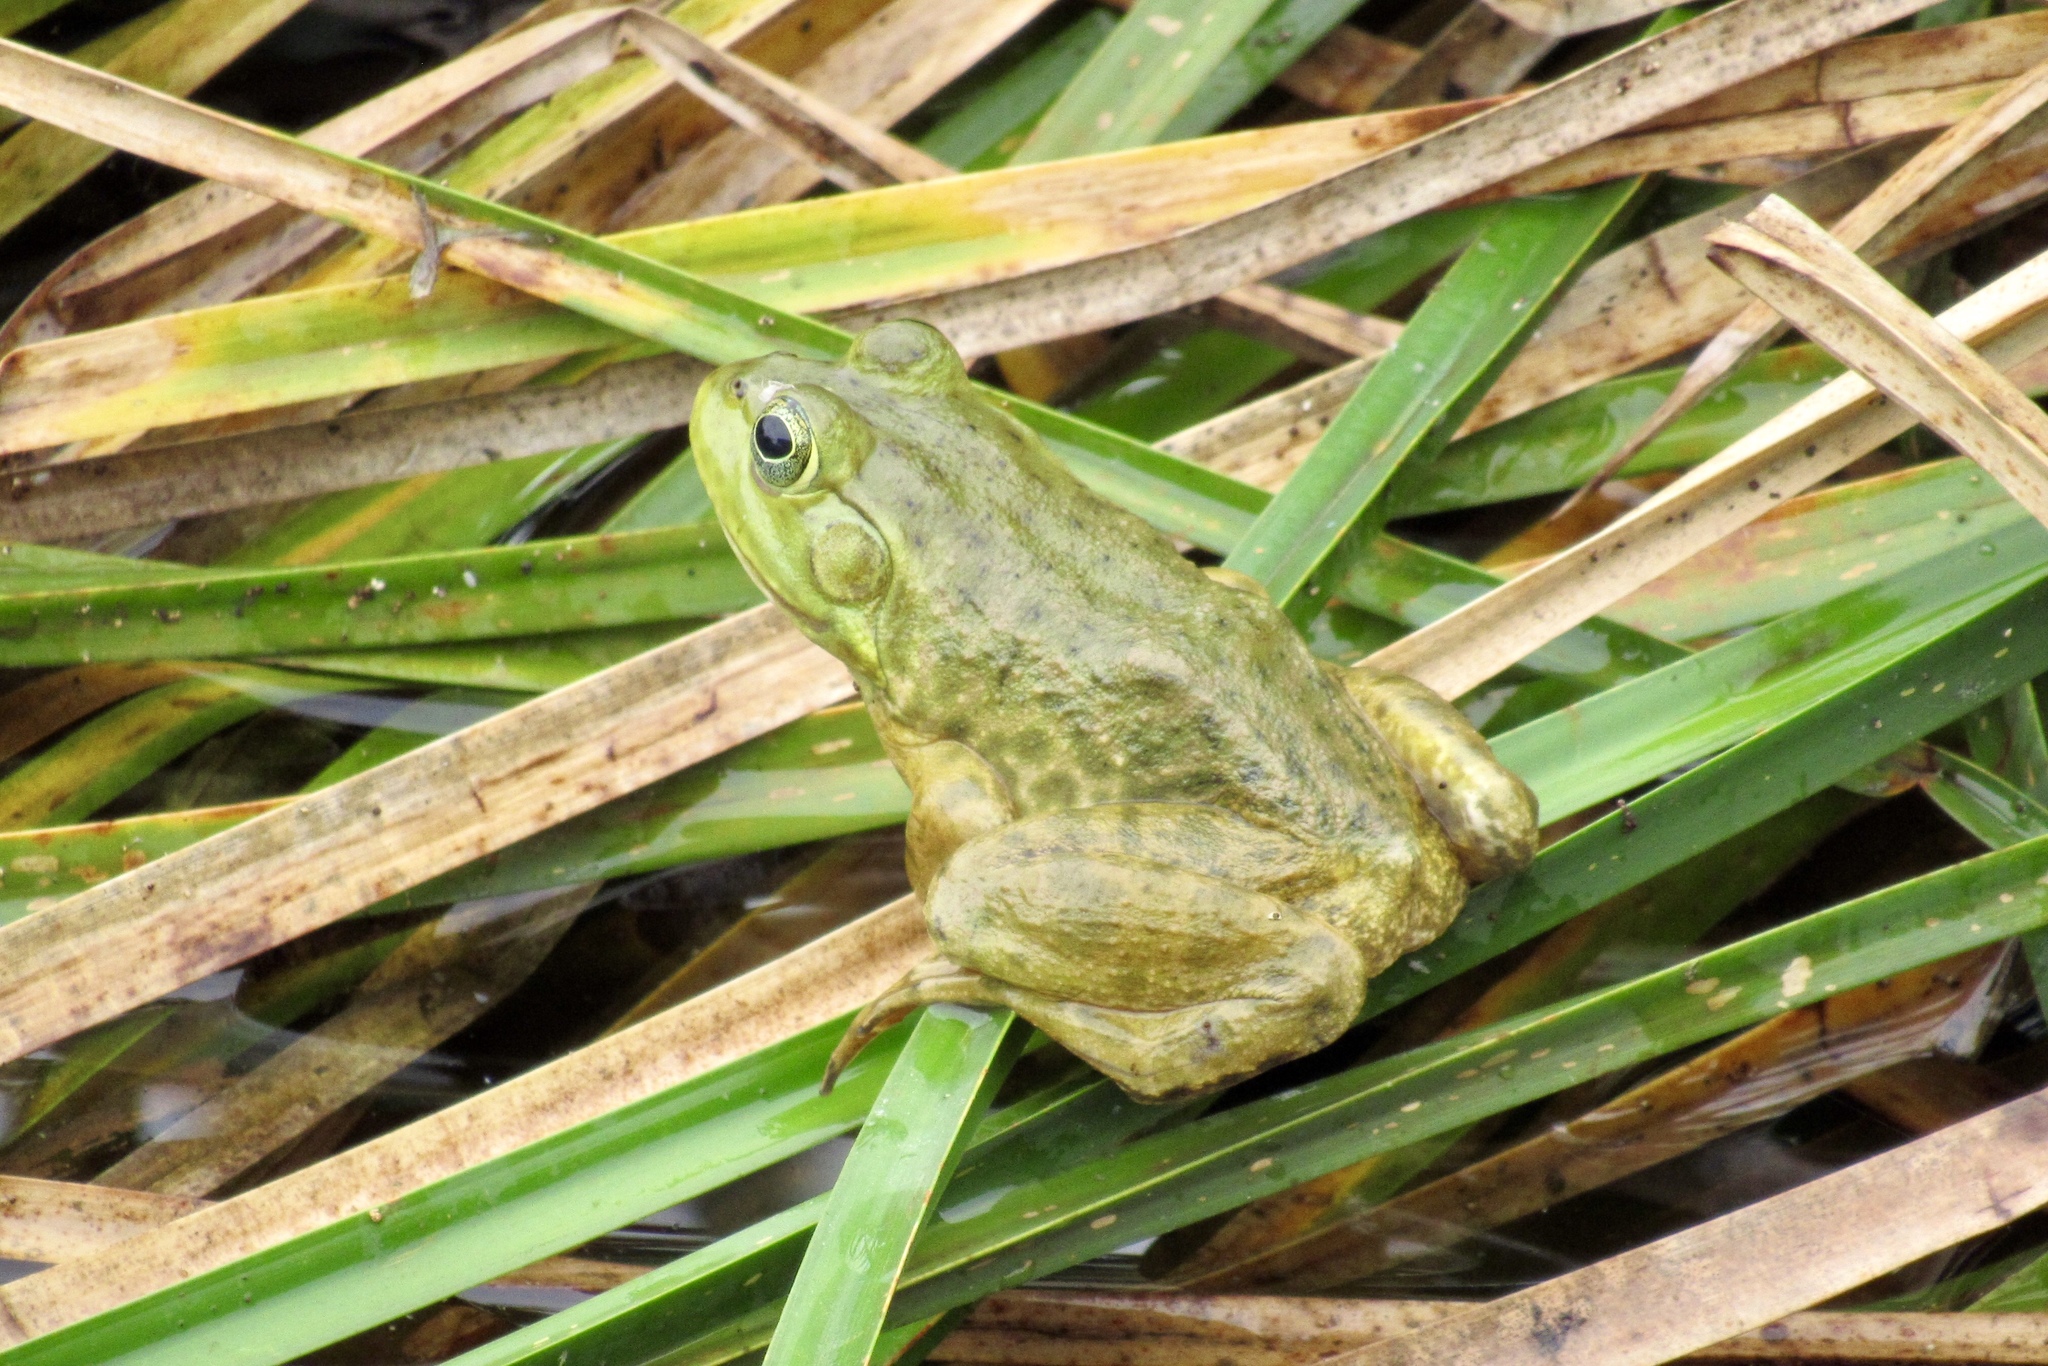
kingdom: Animalia
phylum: Chordata
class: Amphibia
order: Anura
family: Ranidae
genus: Lithobates
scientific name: Lithobates catesbeianus
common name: American bullfrog
